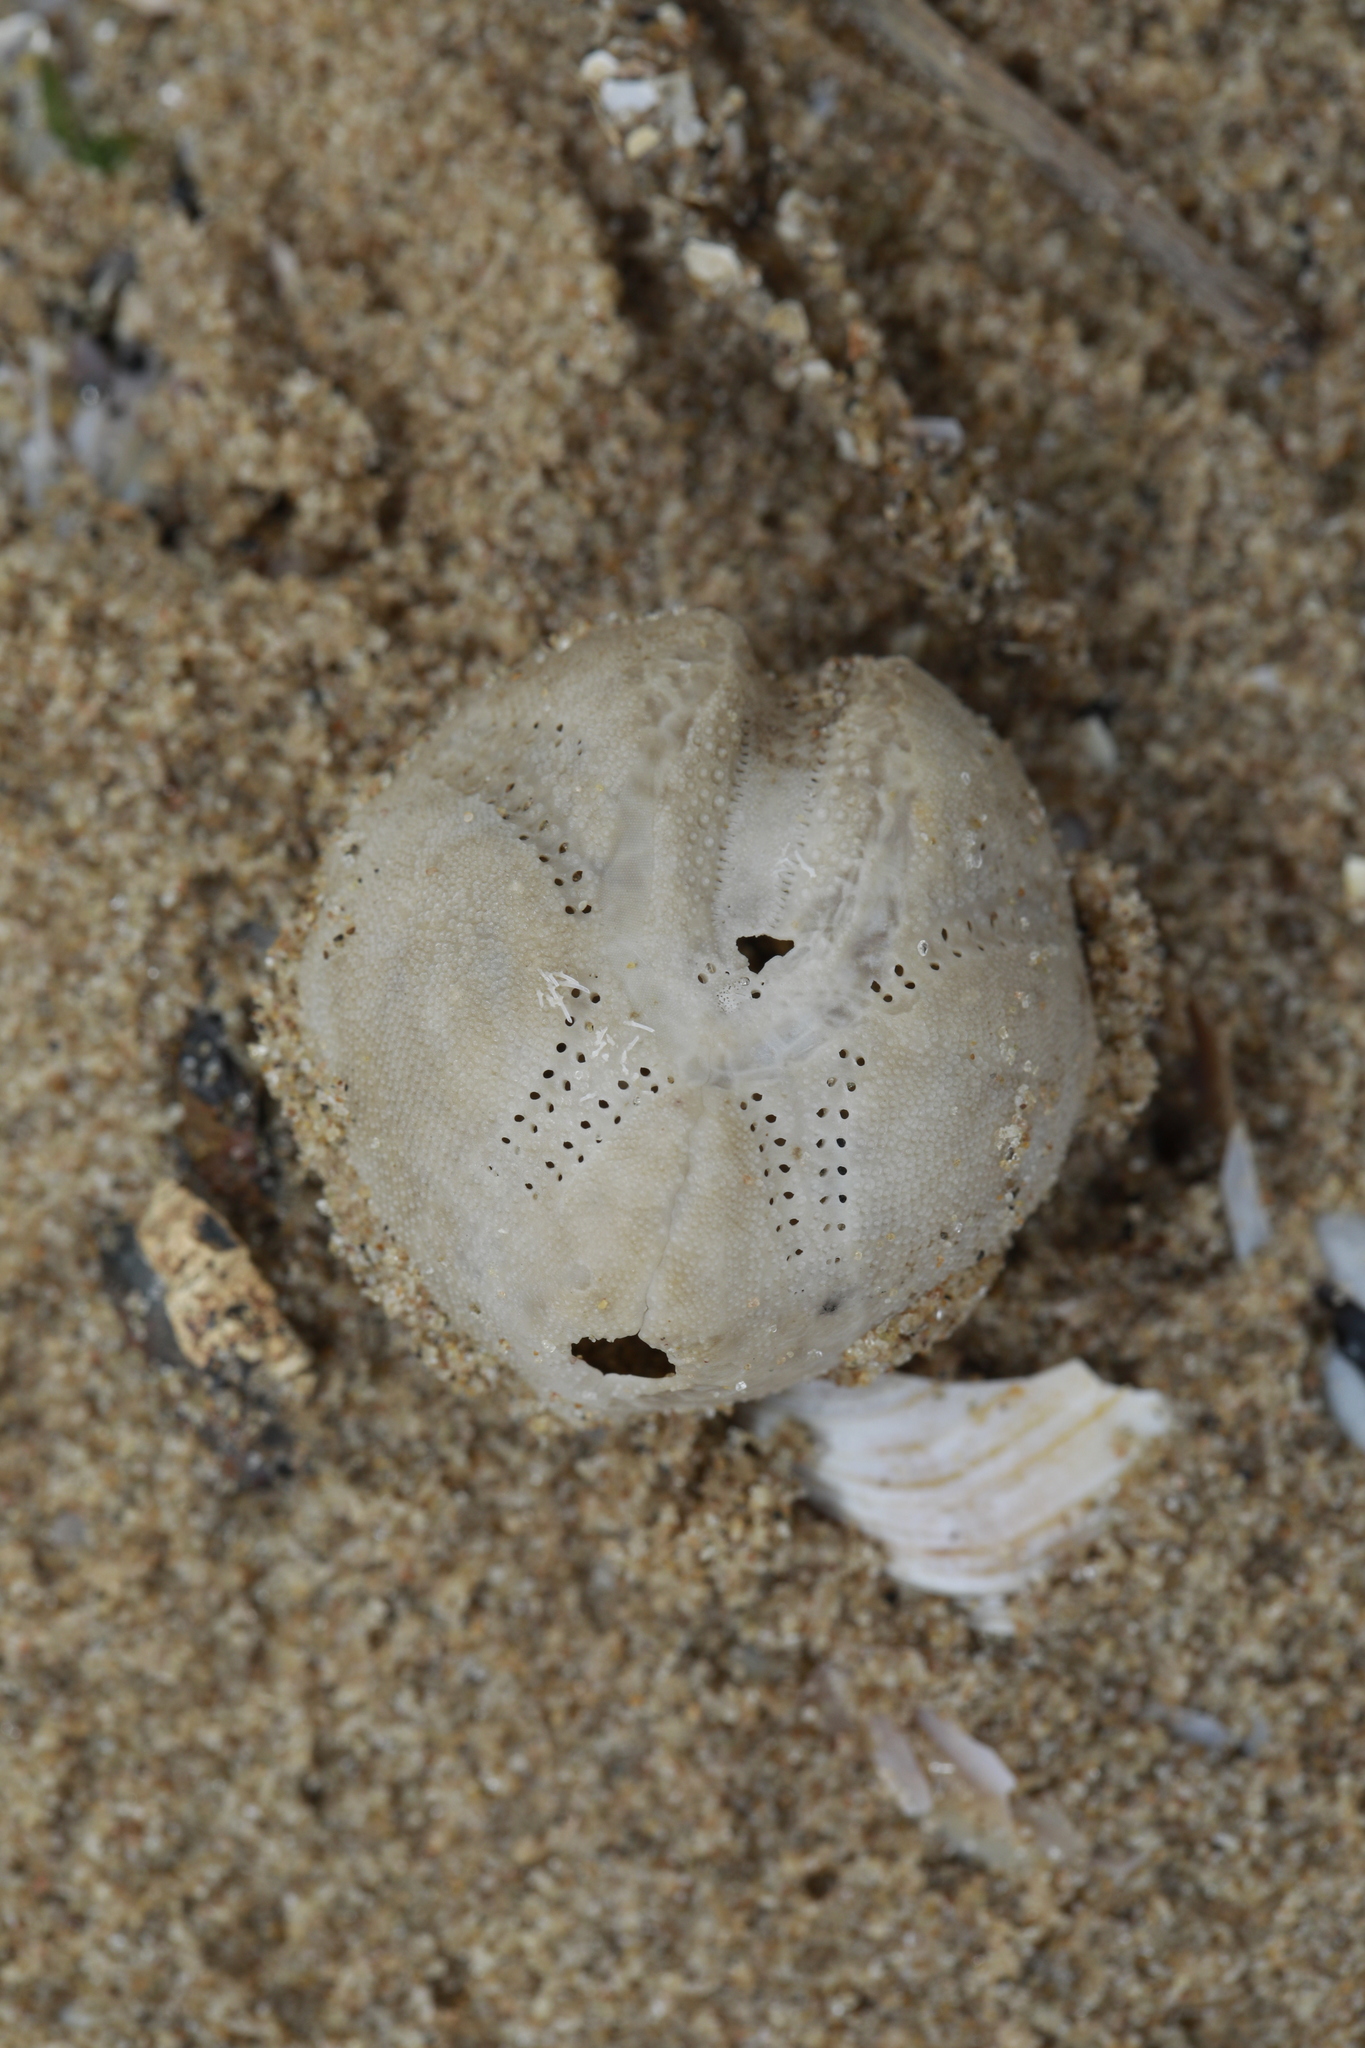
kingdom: Animalia
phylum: Echinodermata
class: Echinoidea
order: Spatangoida
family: Loveniidae
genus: Echinocardium
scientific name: Echinocardium cordatum
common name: Heart-urchin
